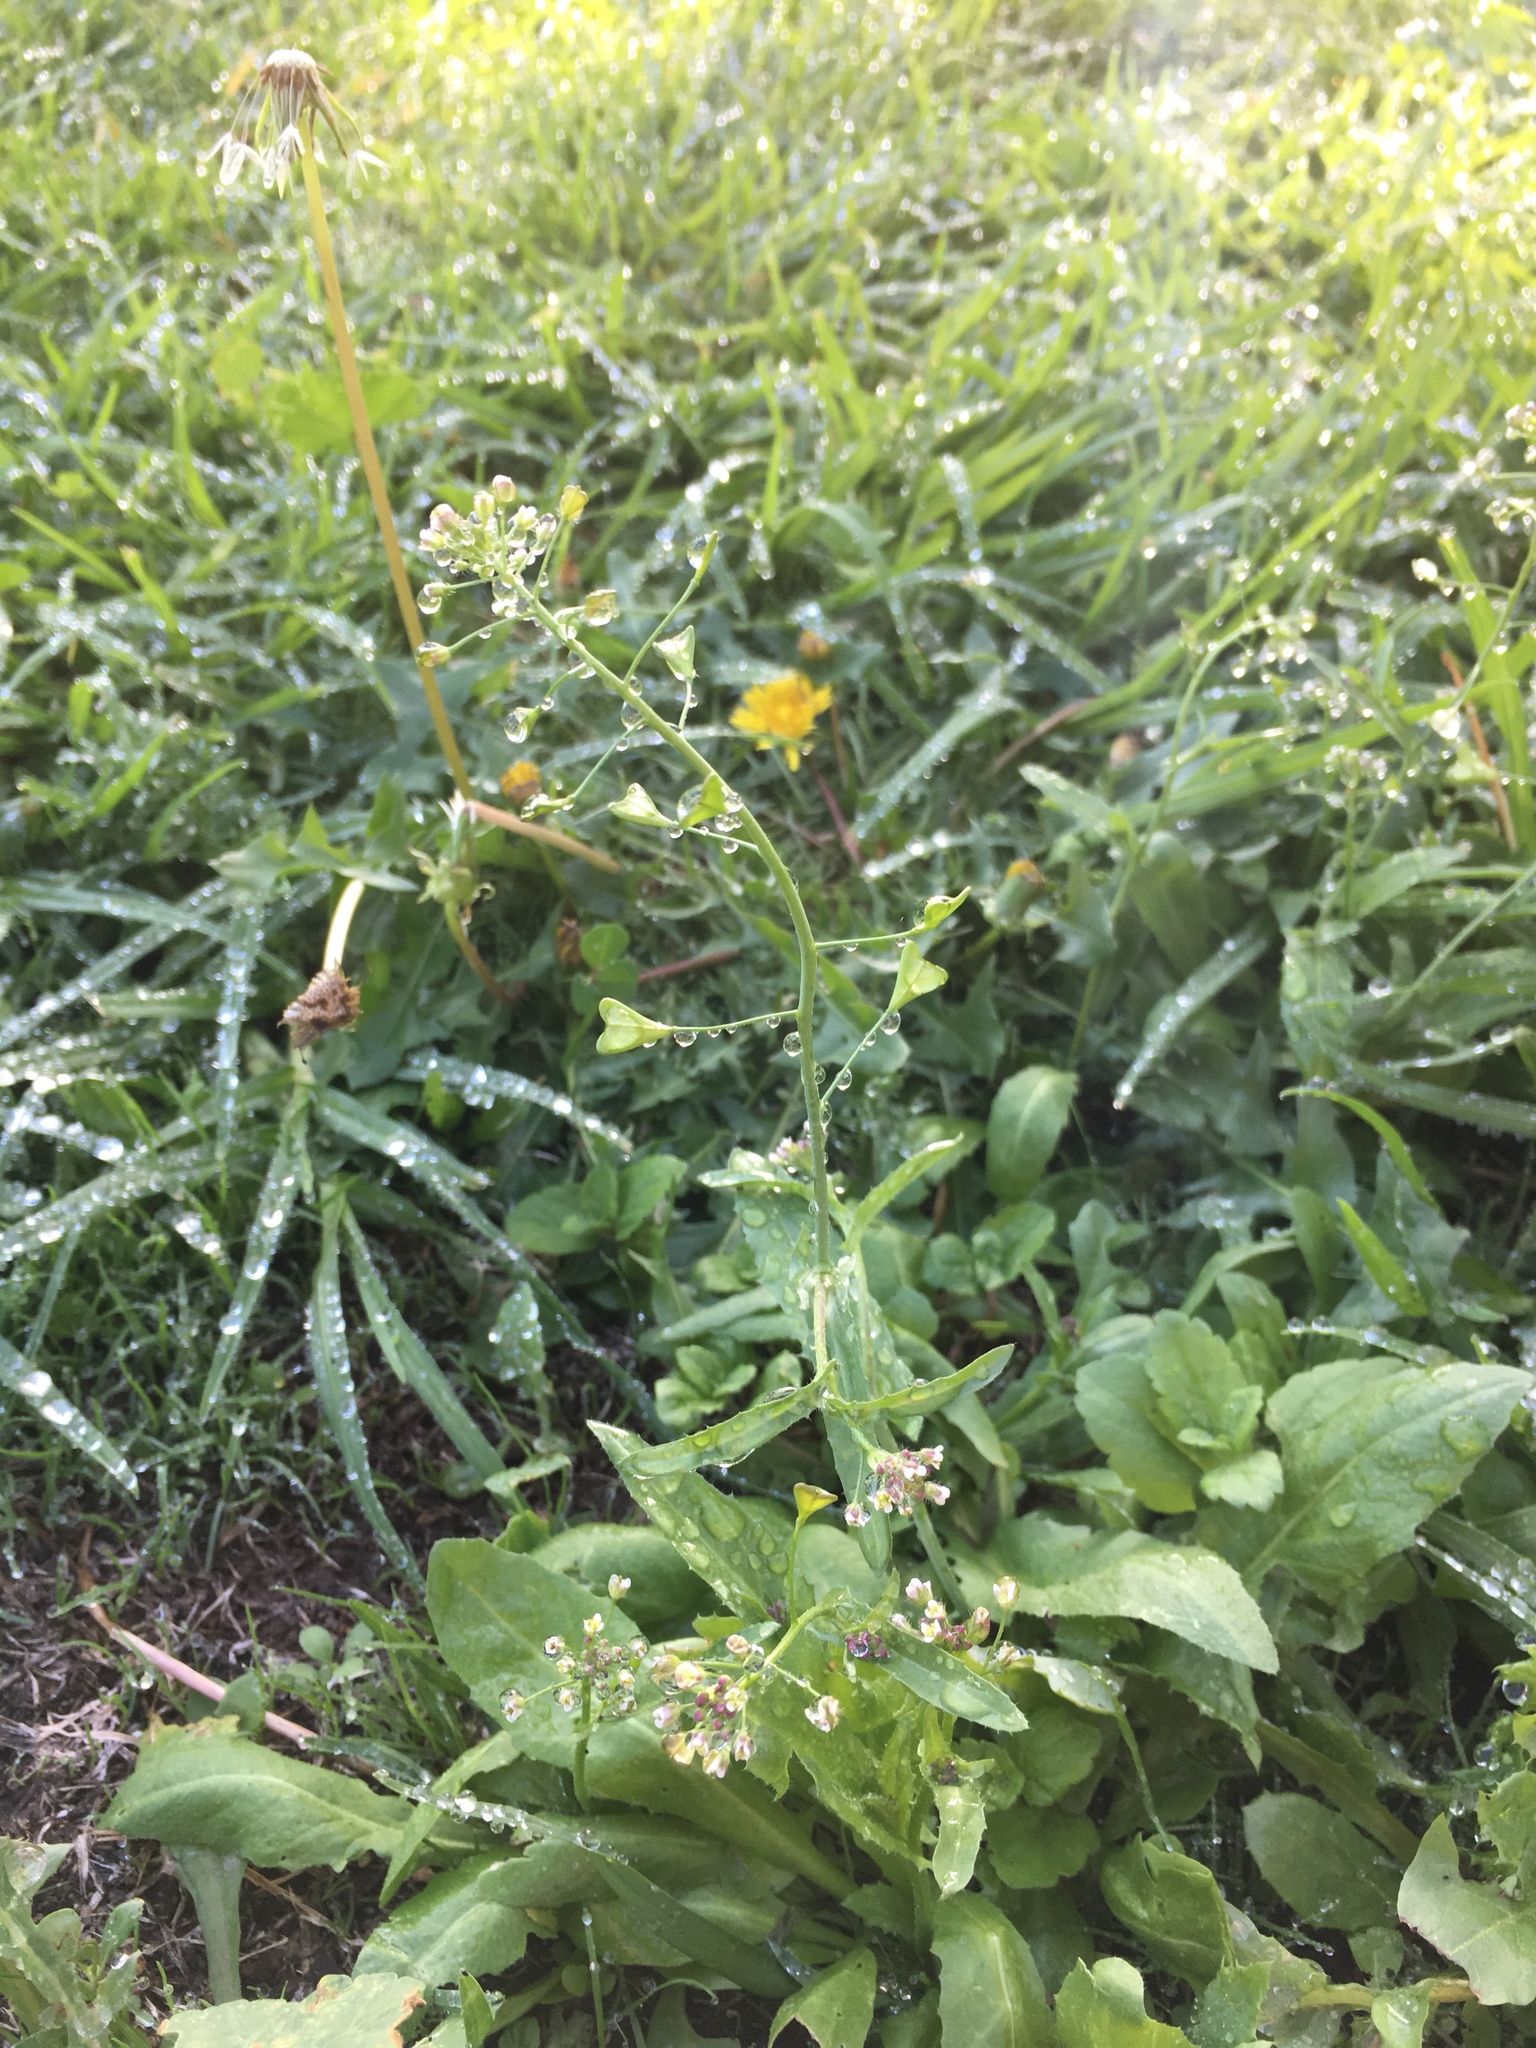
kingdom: Plantae
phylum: Tracheophyta
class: Magnoliopsida
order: Brassicales
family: Brassicaceae
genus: Capsella
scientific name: Capsella bursa-pastoris
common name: Shepherd's purse
